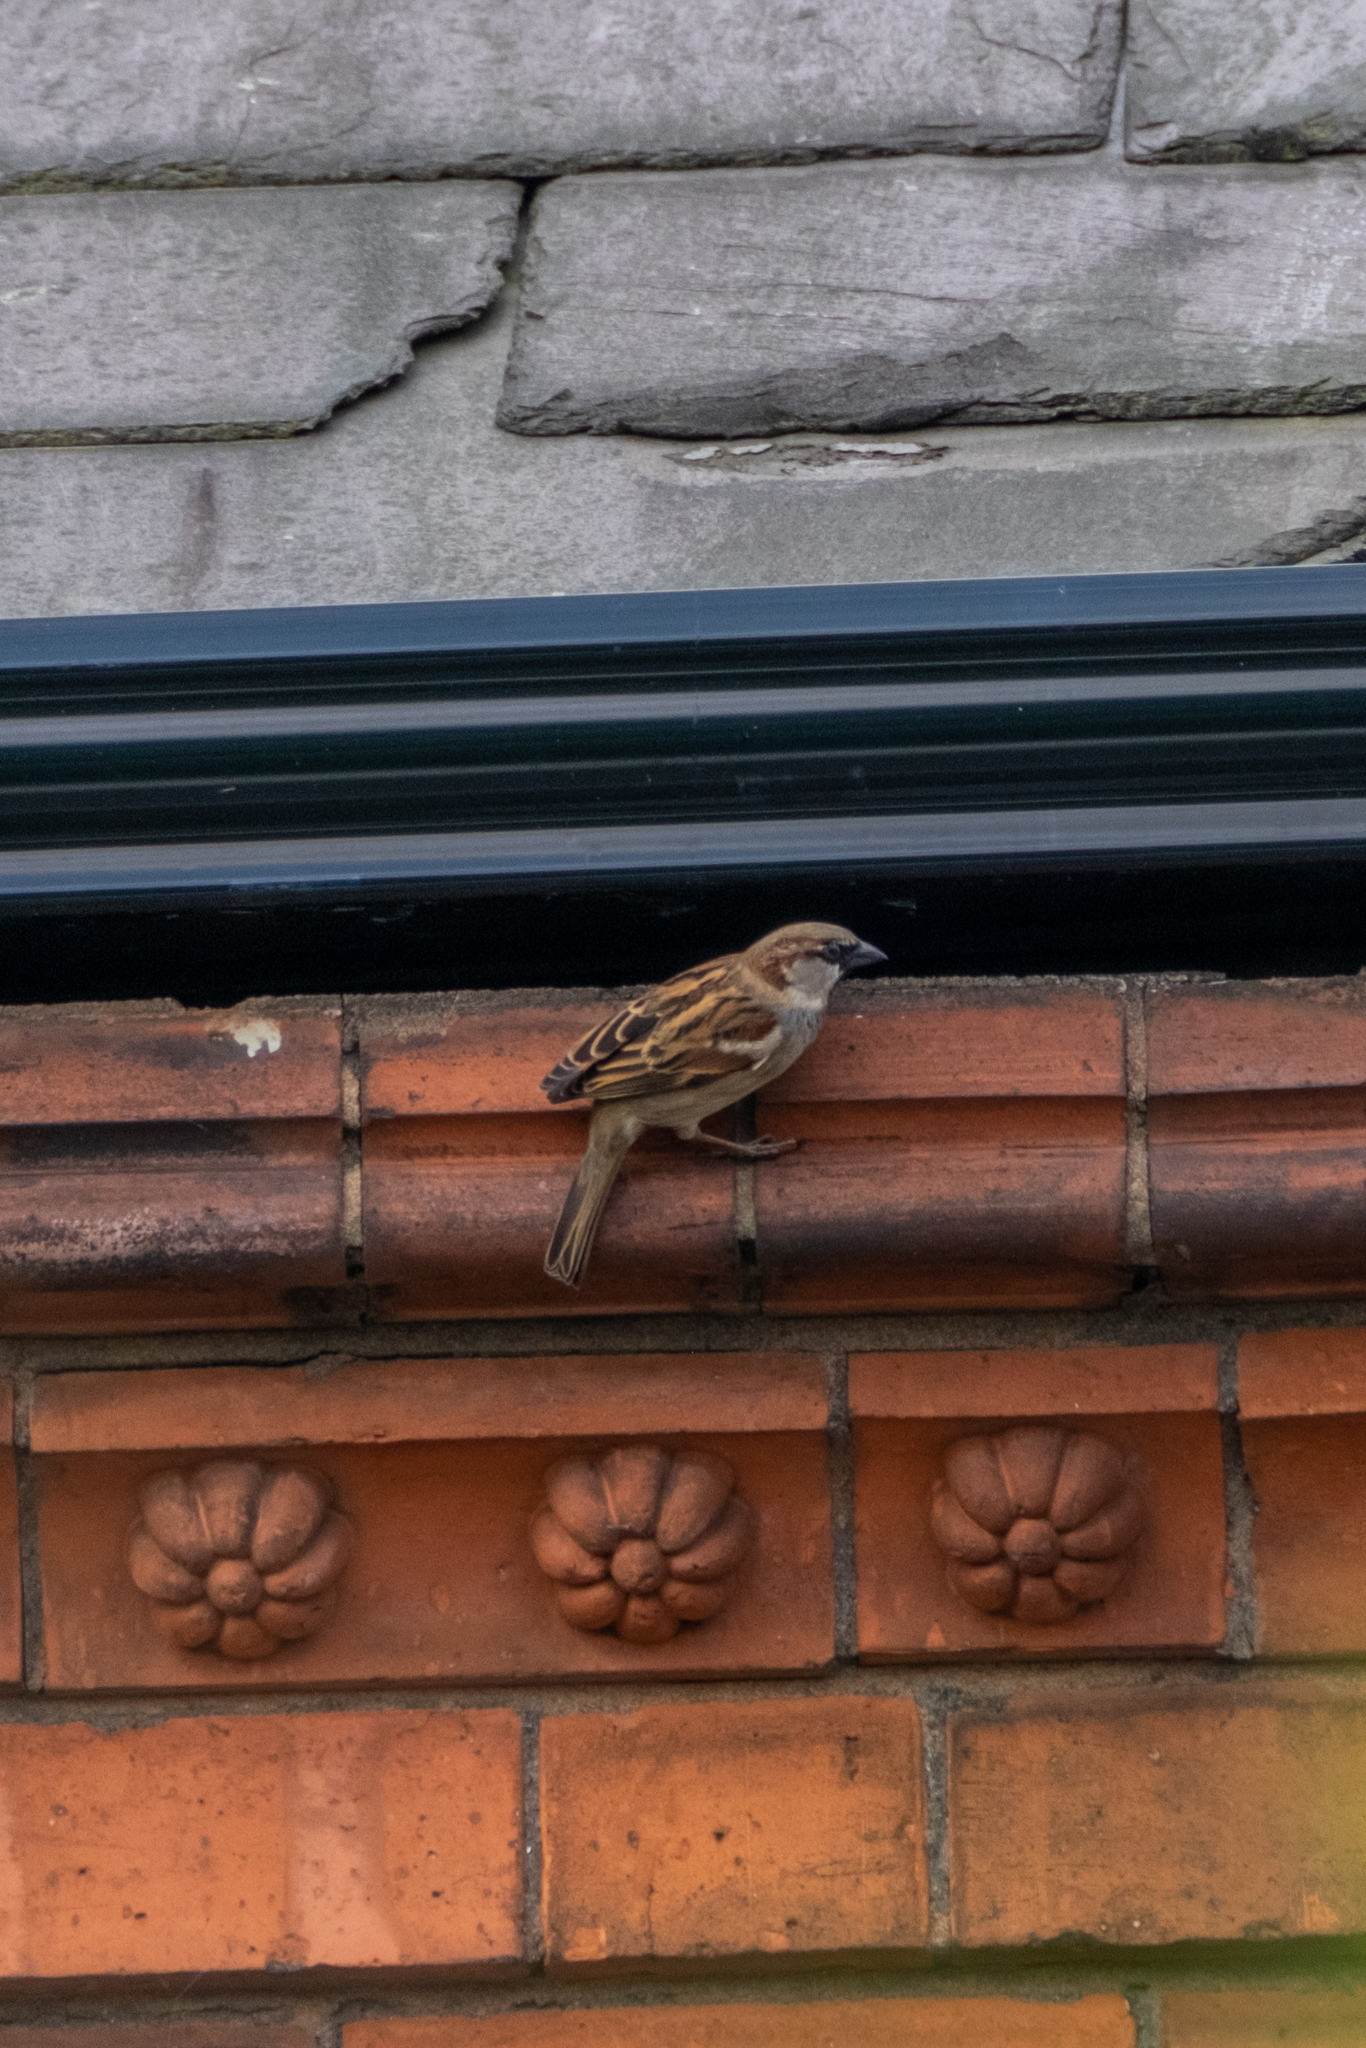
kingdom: Animalia
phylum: Chordata
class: Aves
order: Passeriformes
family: Passeridae
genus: Passer
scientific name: Passer domesticus
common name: House sparrow
